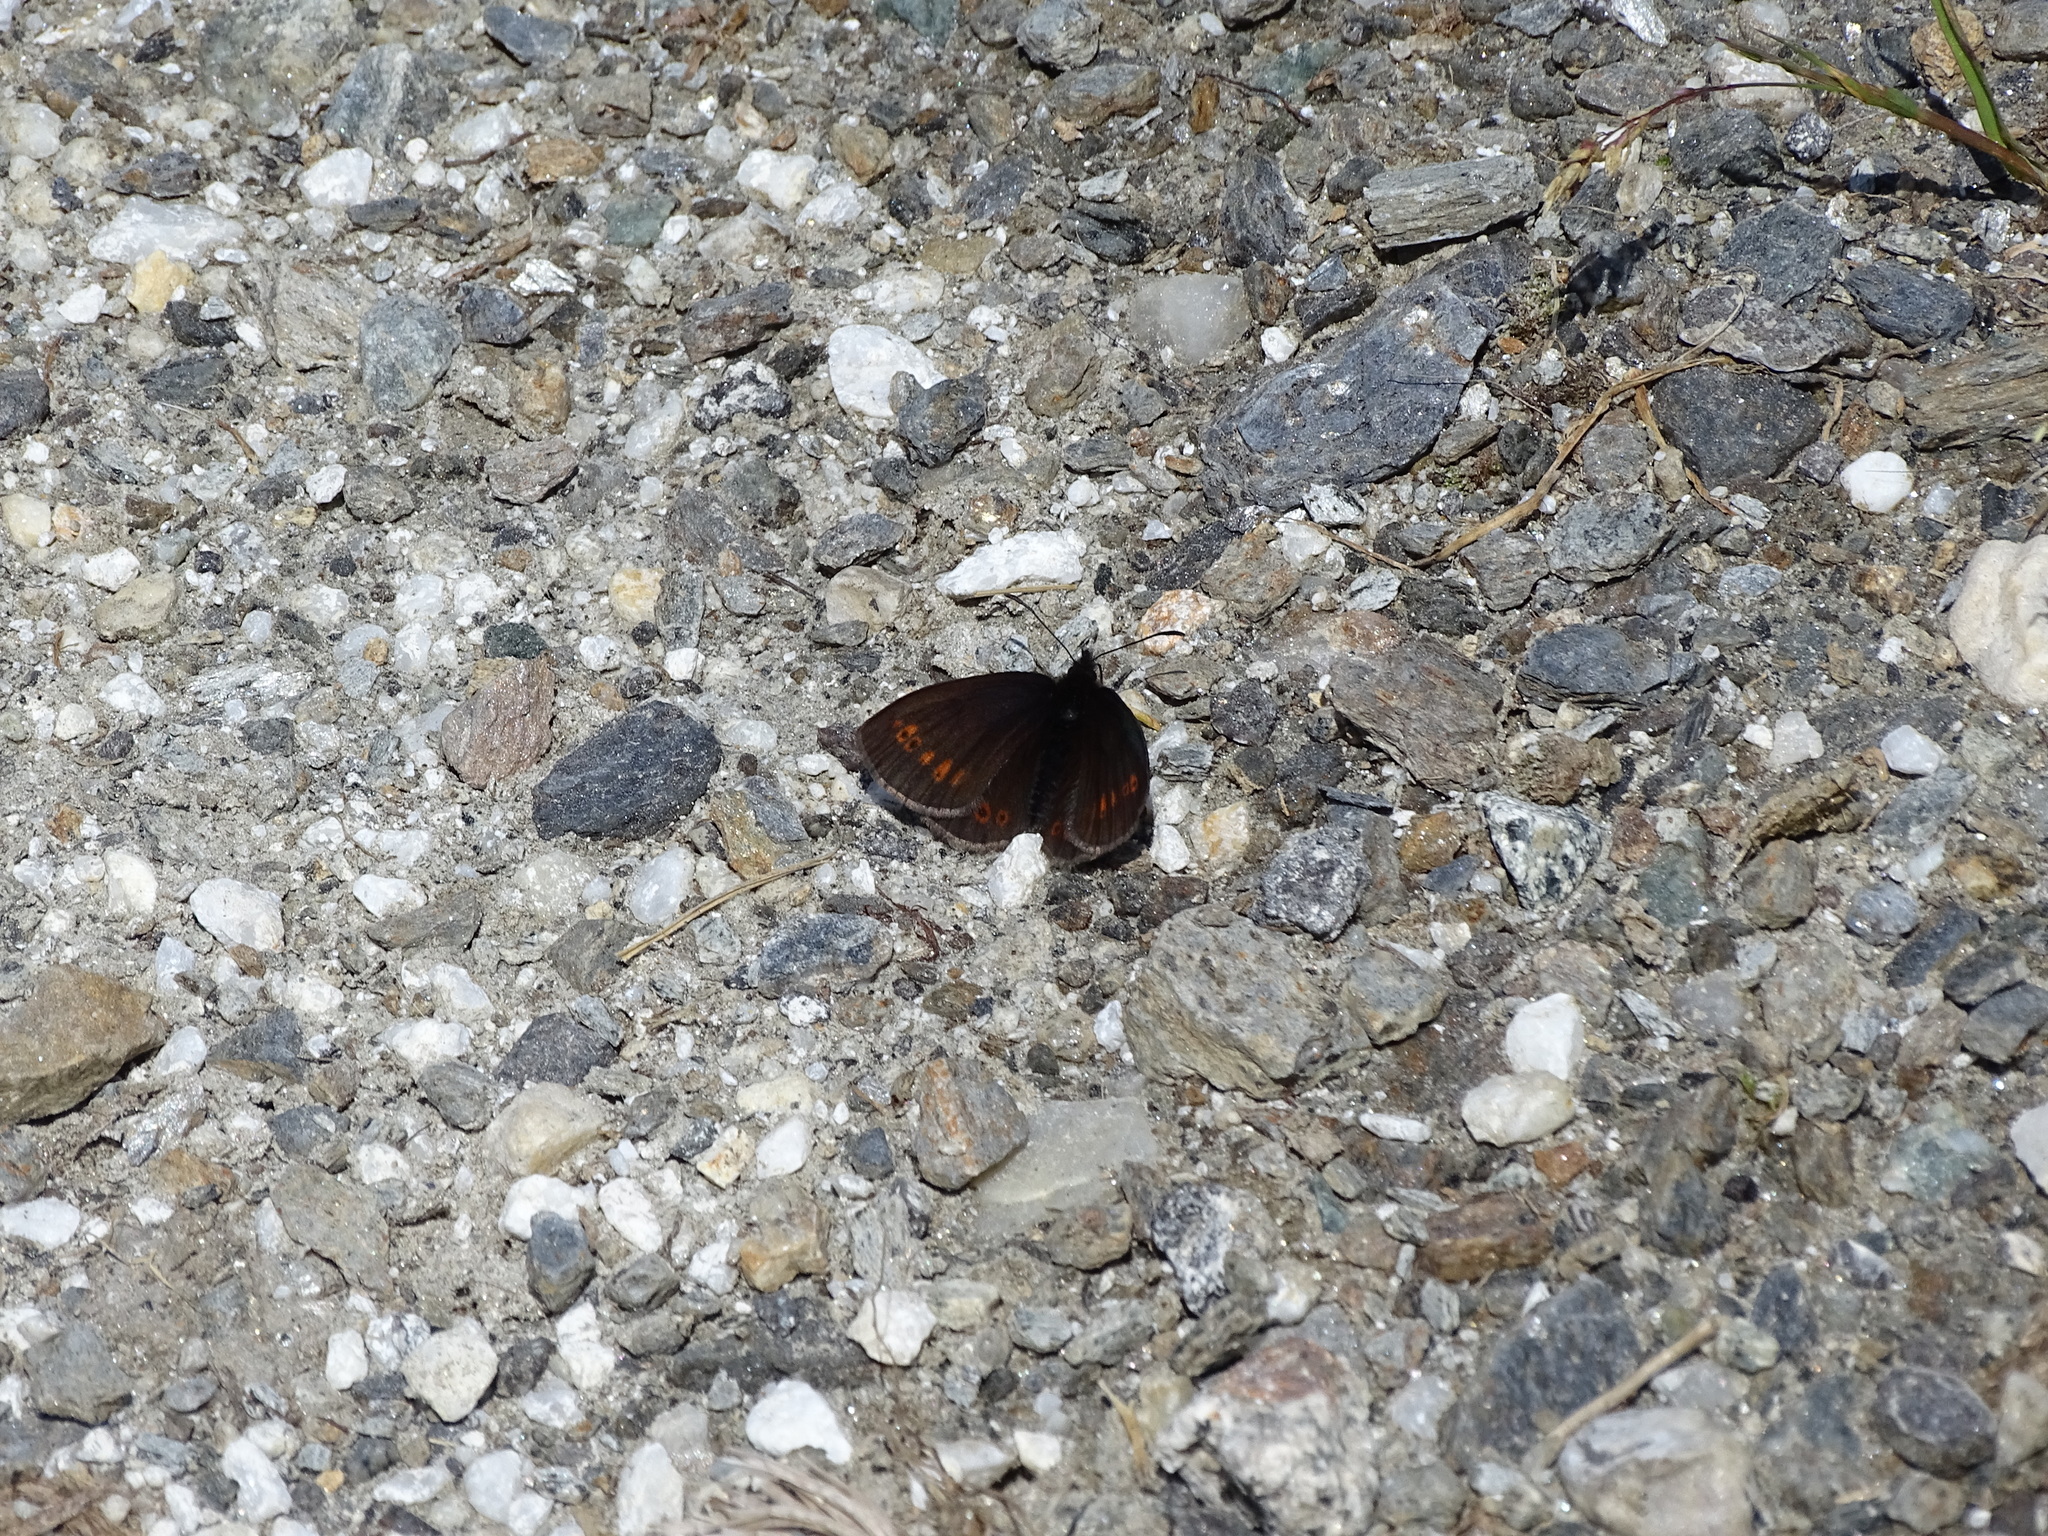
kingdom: Animalia
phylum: Arthropoda
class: Insecta
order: Lepidoptera
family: Nymphalidae
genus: Erebia
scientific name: Erebia alberganus
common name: Almond-eyed ringlet
